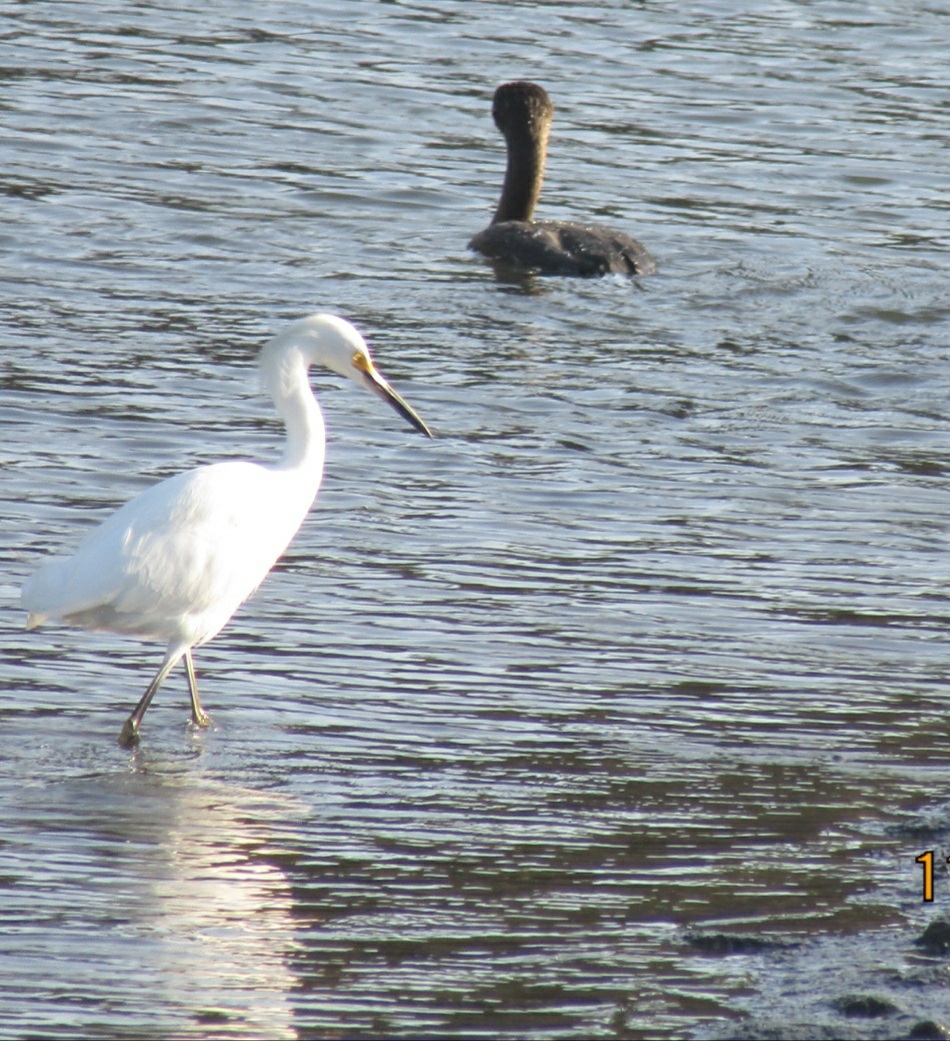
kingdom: Animalia
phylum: Chordata
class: Aves
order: Pelecaniformes
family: Ardeidae
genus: Egretta
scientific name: Egretta thula
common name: Snowy egret
